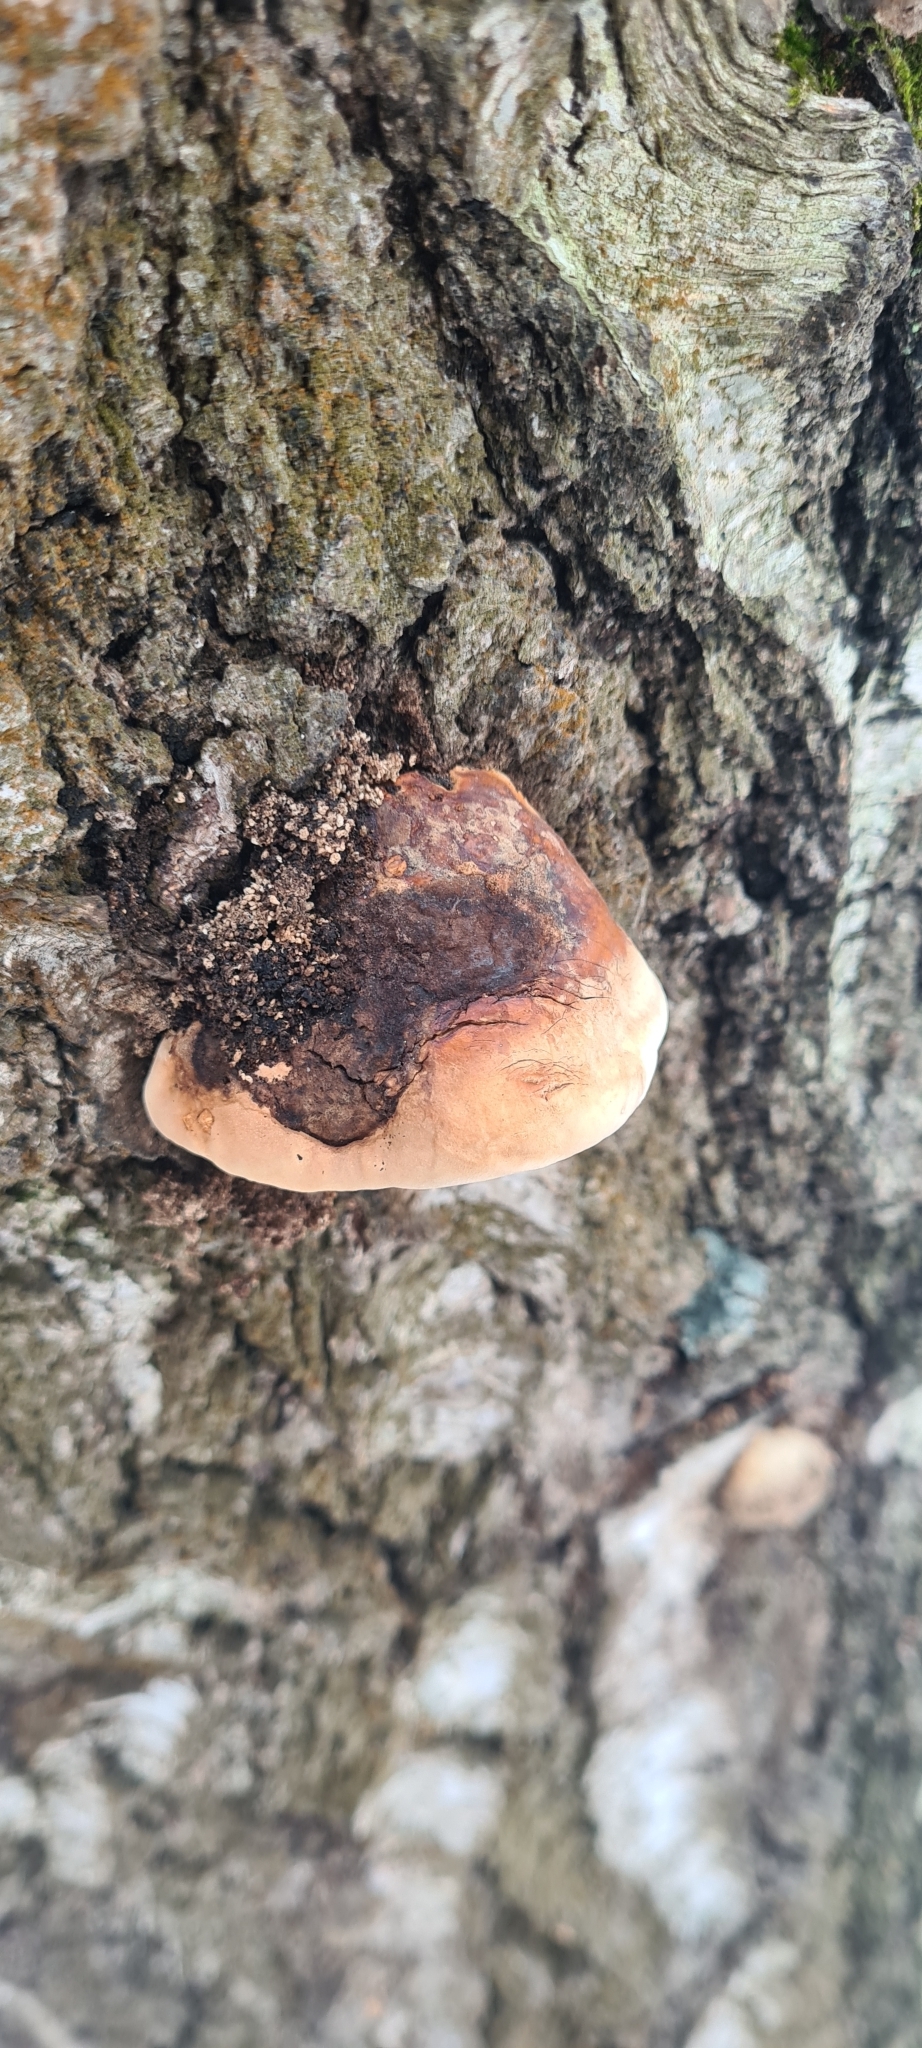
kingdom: Fungi
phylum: Basidiomycota
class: Agaricomycetes
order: Polyporales
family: Fomitopsidaceae
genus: Fomitopsis
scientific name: Fomitopsis pinicola
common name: Red-belted bracket
